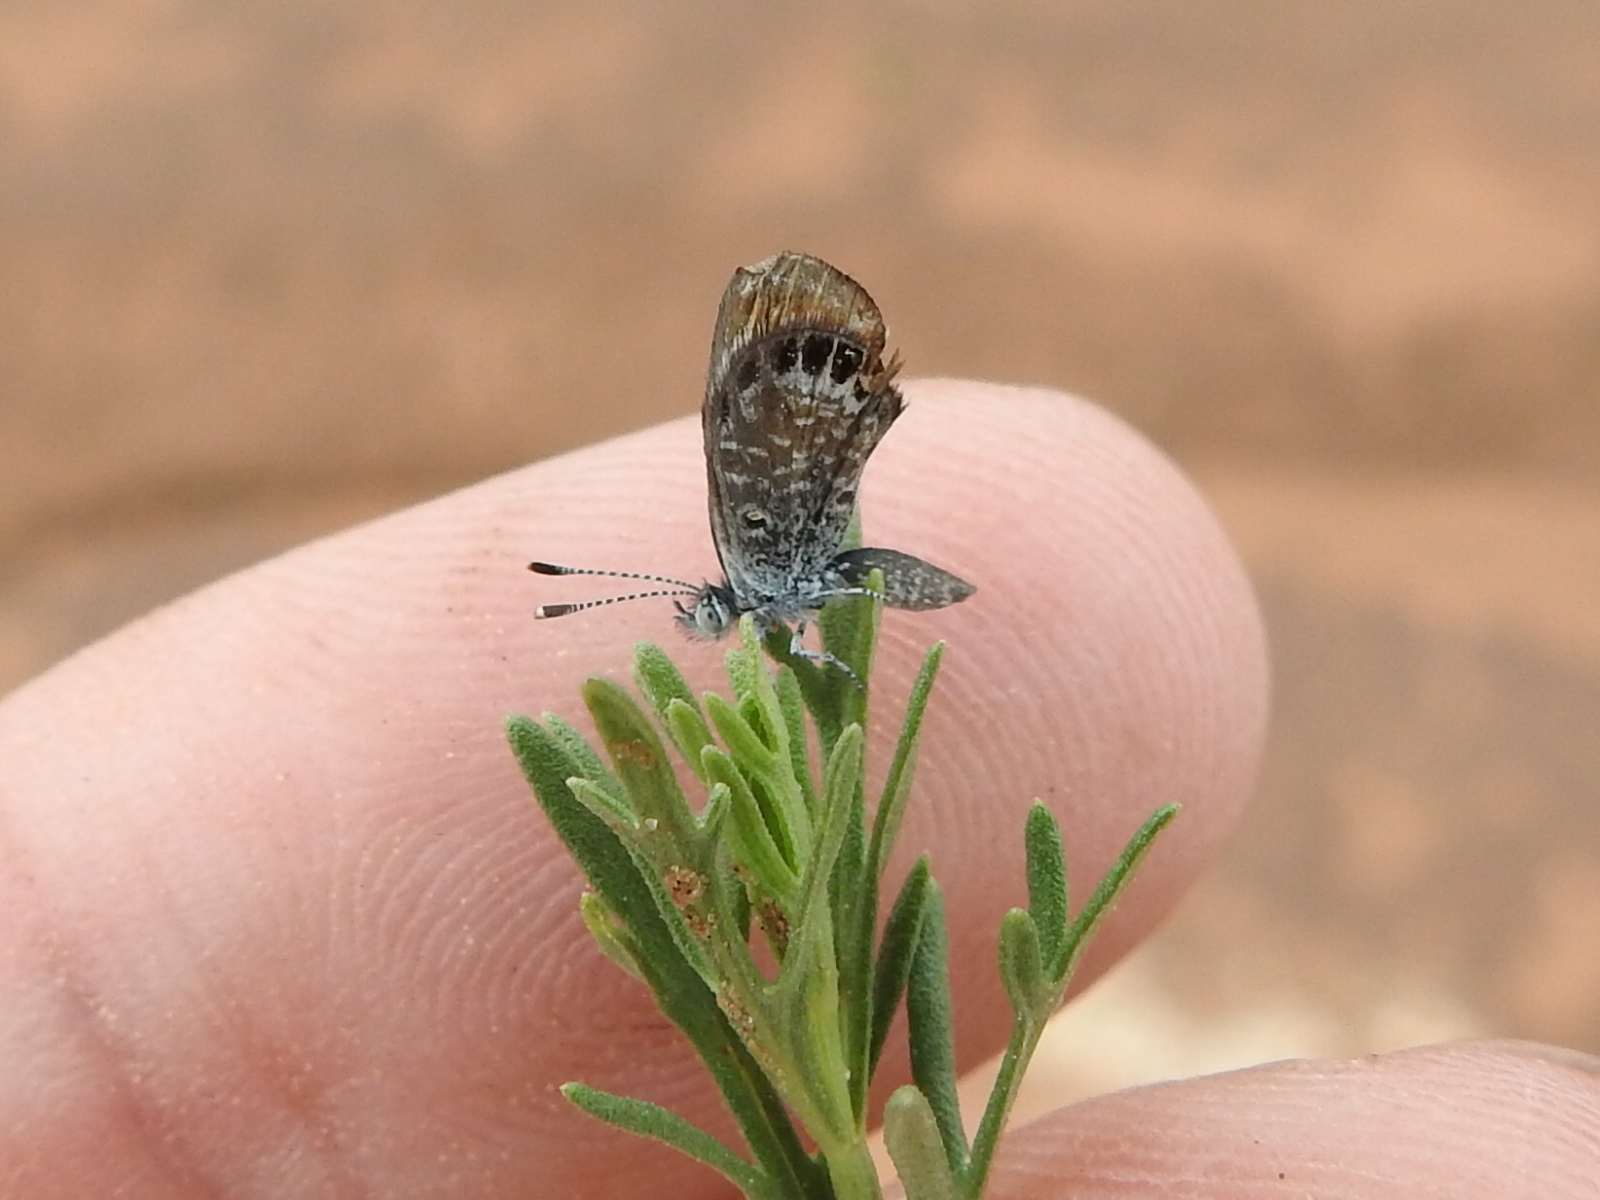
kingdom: Animalia
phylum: Arthropoda
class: Insecta
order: Lepidoptera
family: Lycaenidae
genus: Brephidium
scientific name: Brephidium exilis
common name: Pygmy blue
